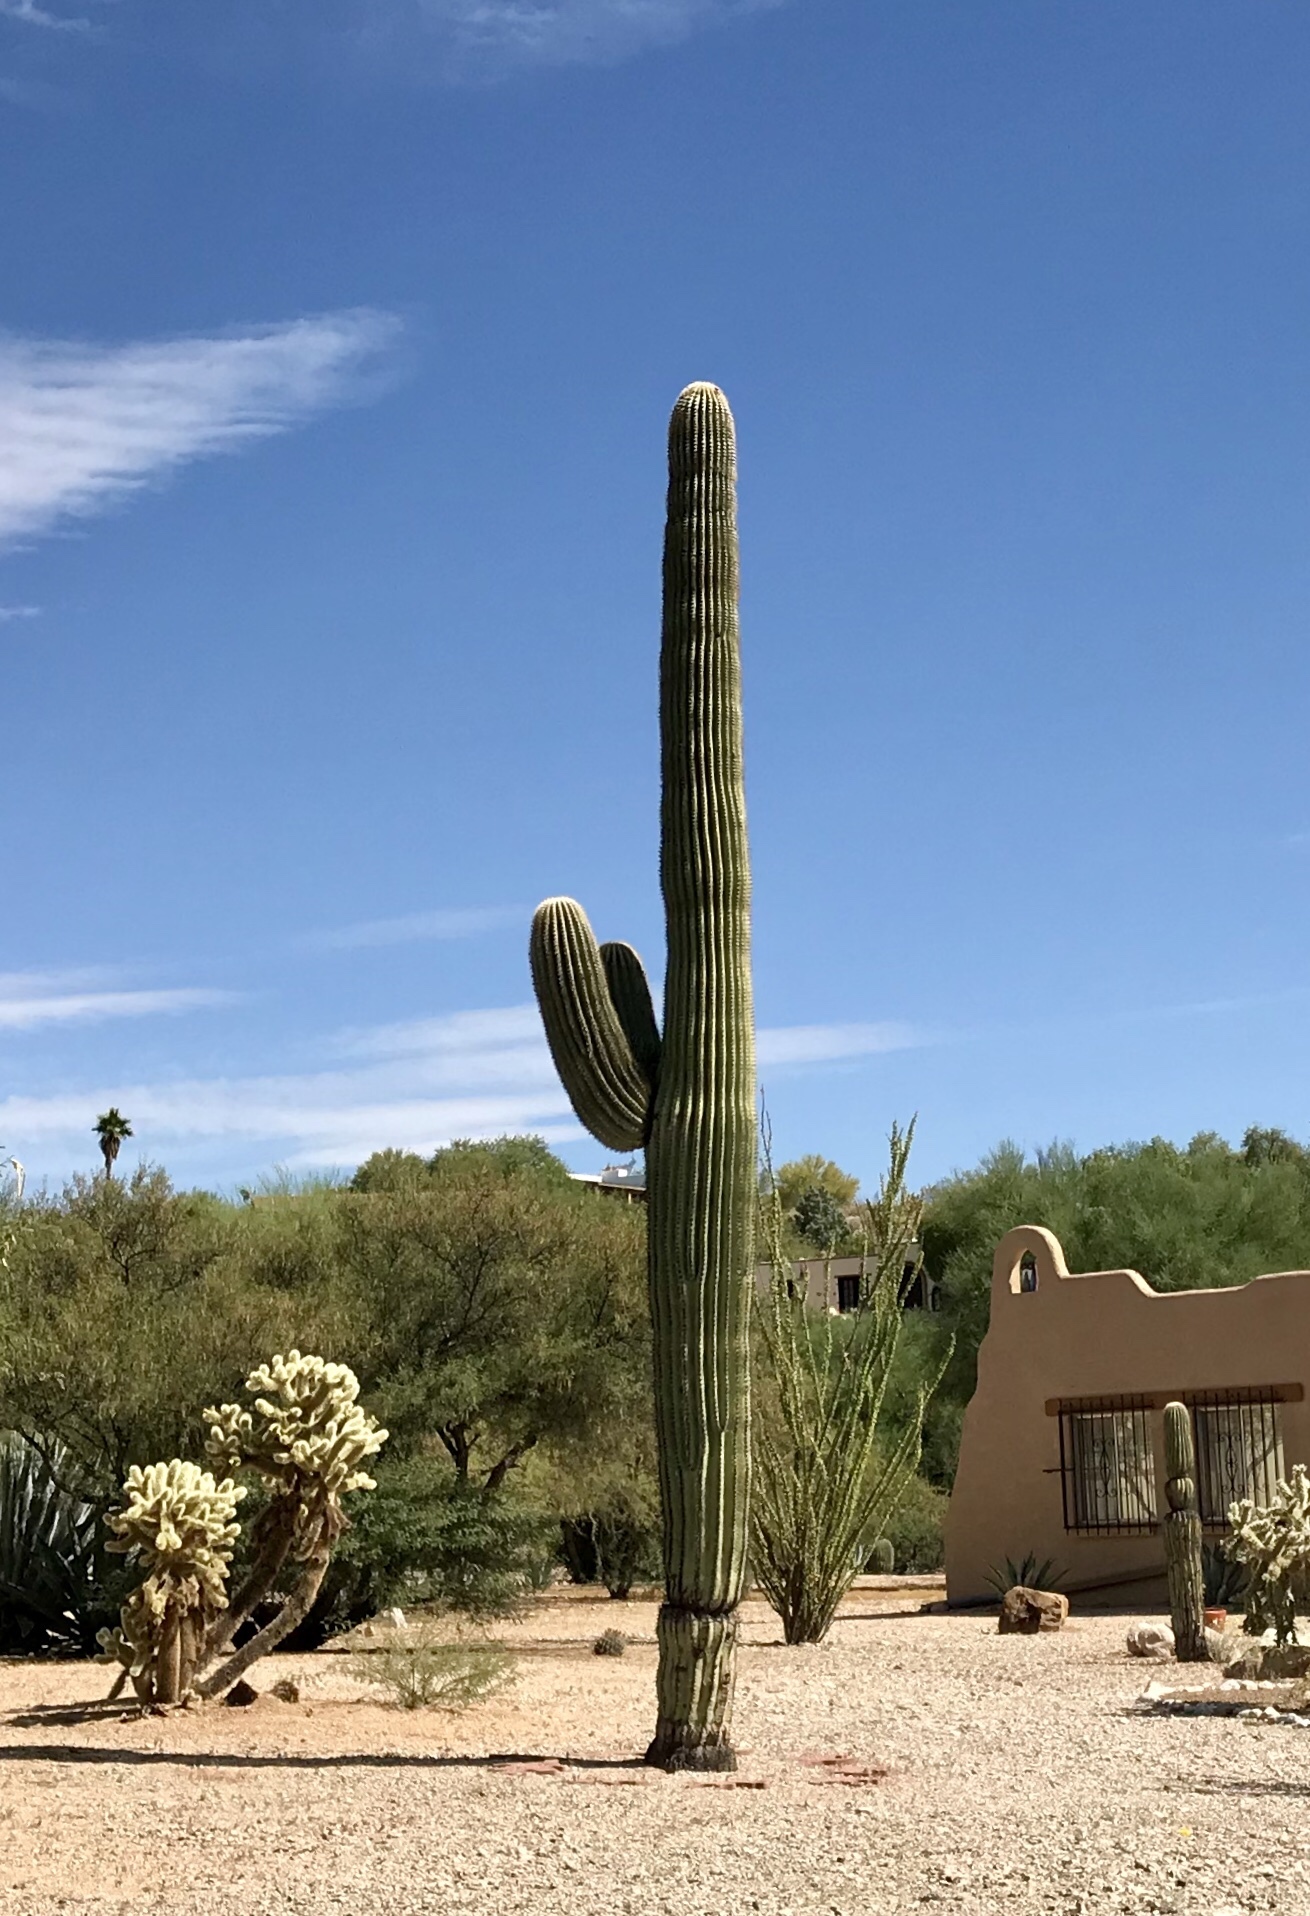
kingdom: Plantae
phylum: Tracheophyta
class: Magnoliopsida
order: Caryophyllales
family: Cactaceae
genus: Carnegiea
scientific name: Carnegiea gigantea
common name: Saguaro
